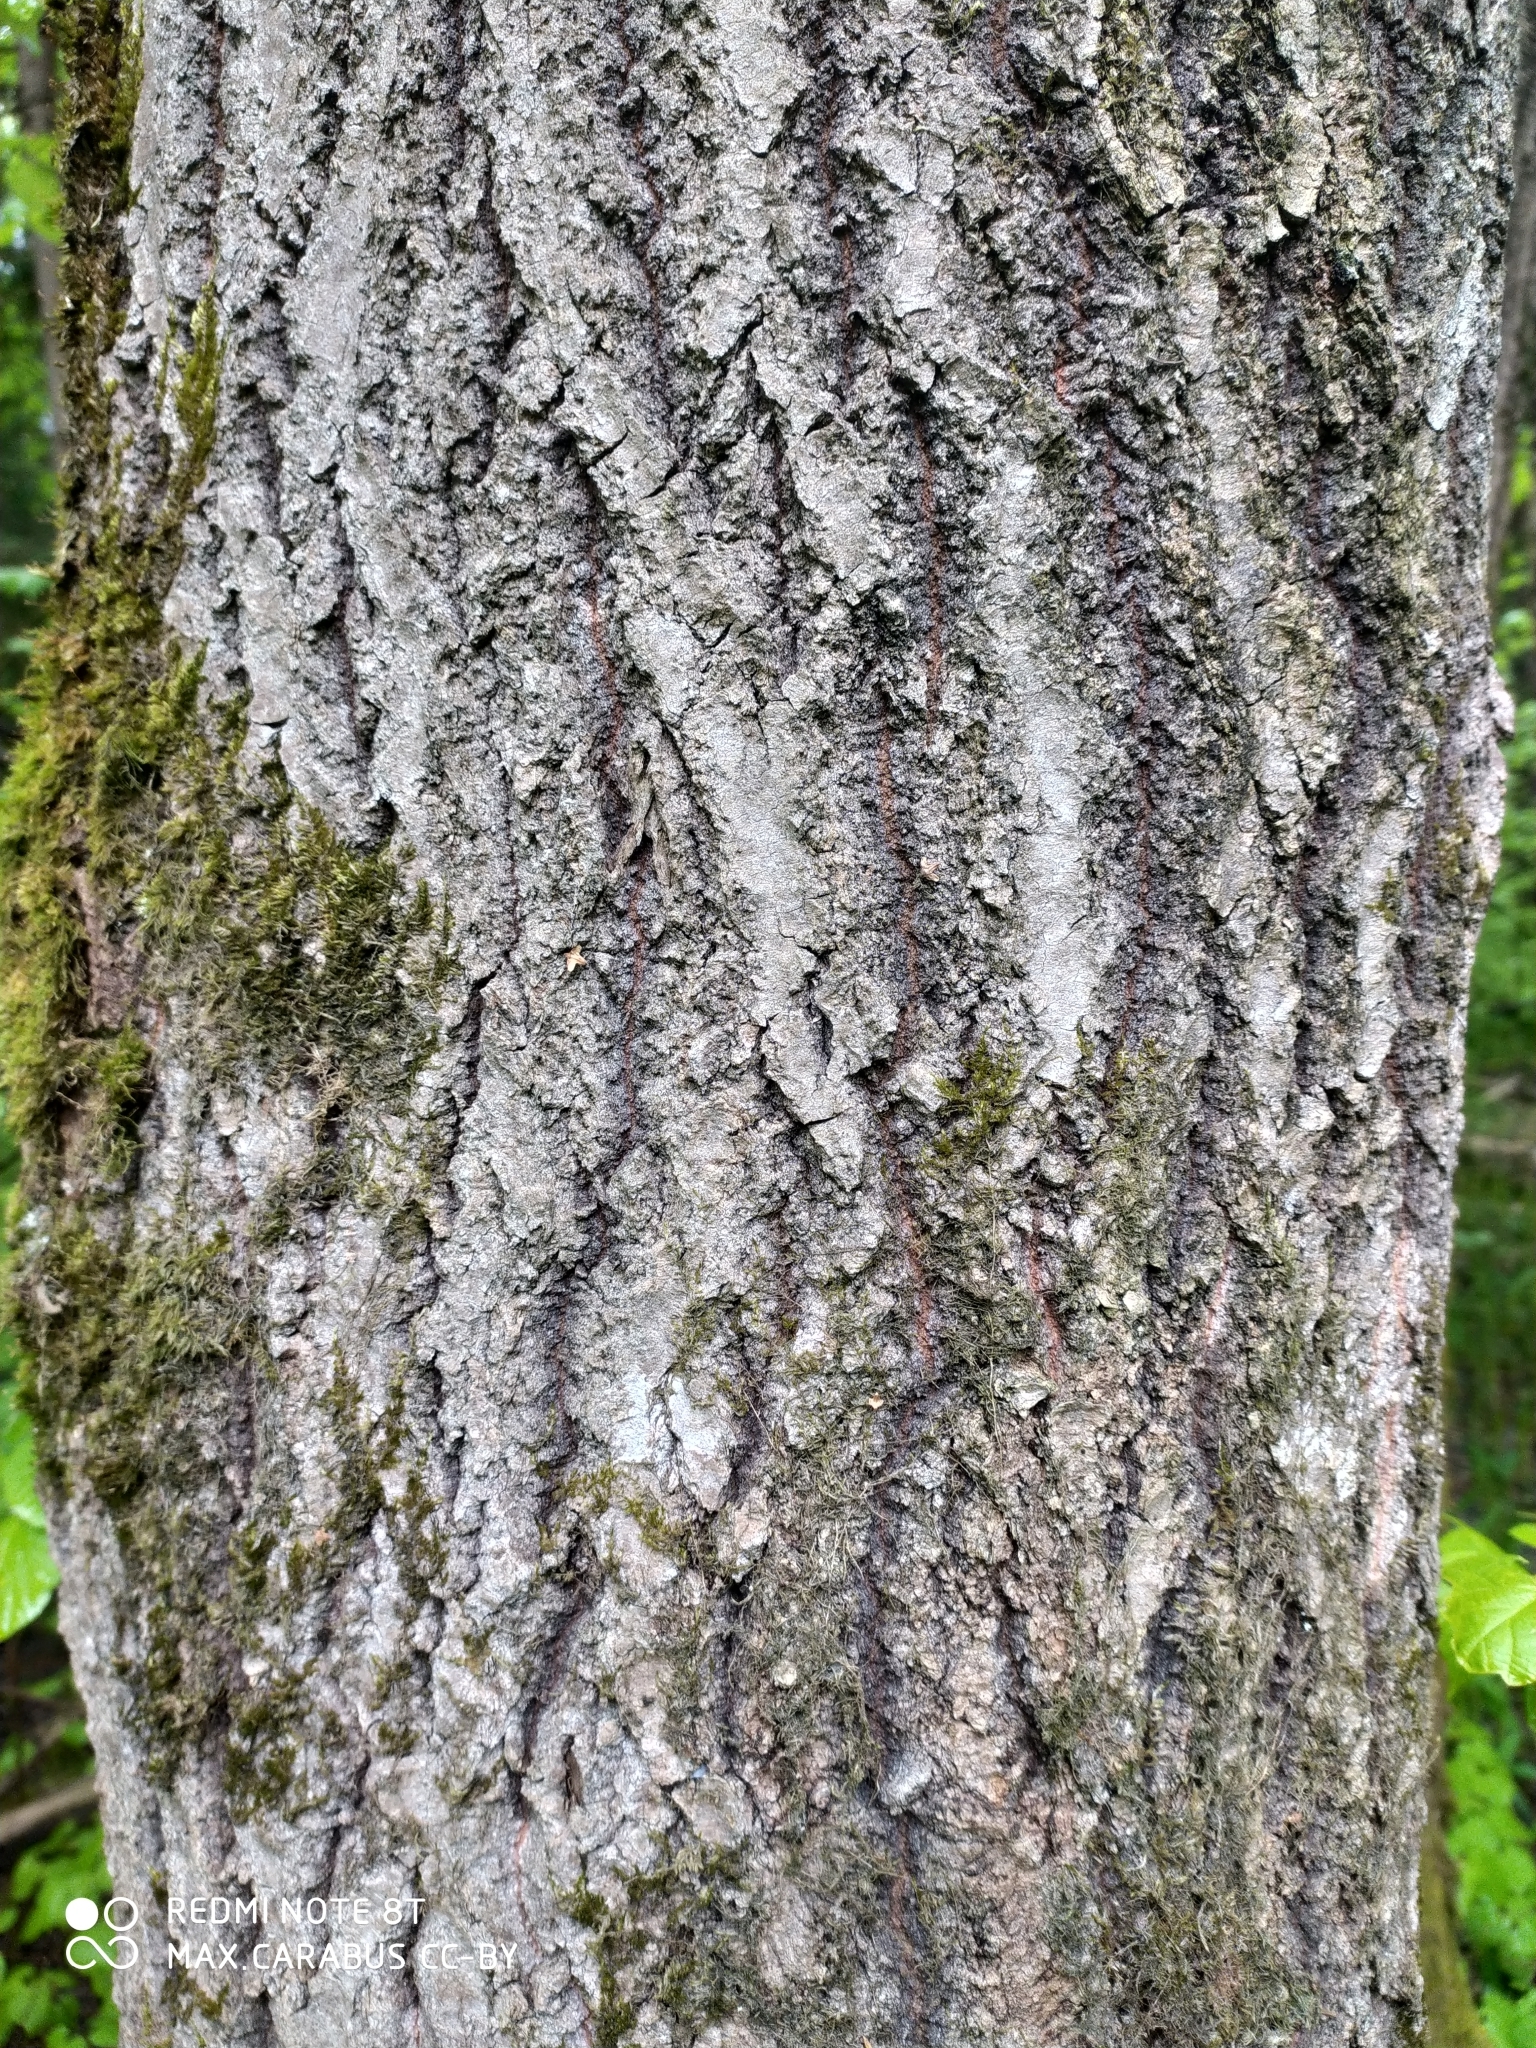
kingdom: Plantae
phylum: Tracheophyta
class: Magnoliopsida
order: Malpighiales
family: Salicaceae
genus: Populus
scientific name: Populus tremula
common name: European aspen
